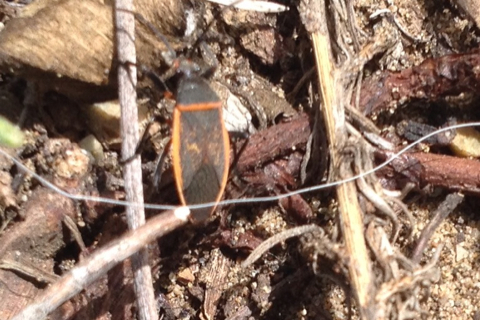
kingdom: Animalia
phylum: Arthropoda
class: Insecta
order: Hemiptera
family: Largidae
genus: Largus
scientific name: Largus californicus
